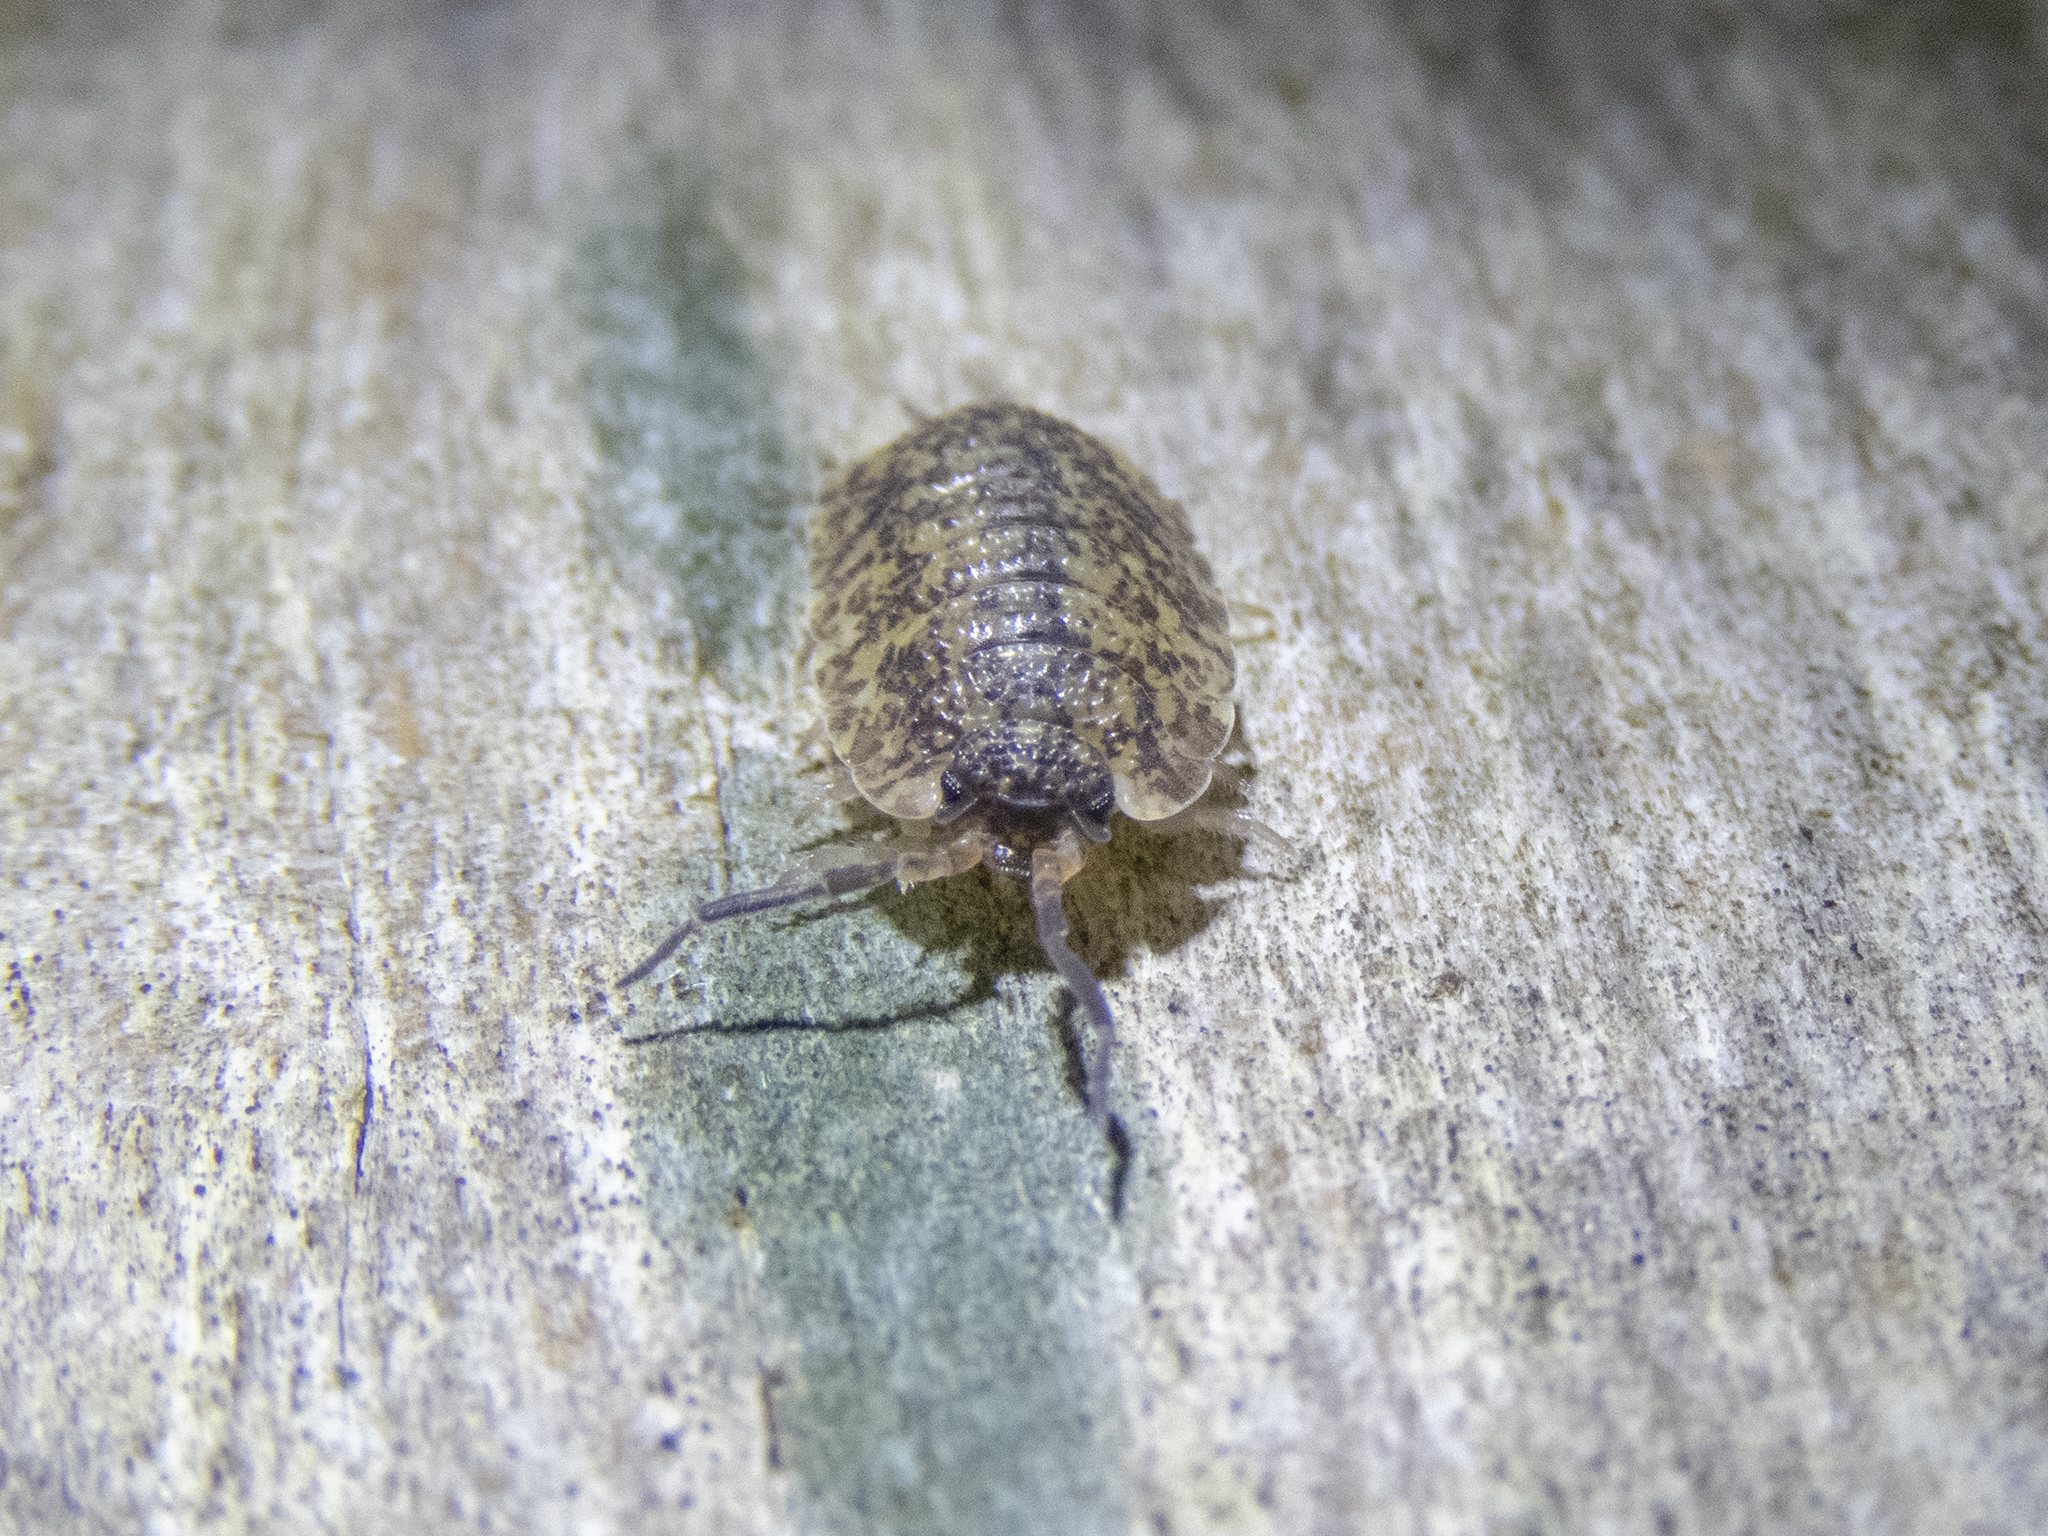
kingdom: Animalia
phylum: Arthropoda
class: Malacostraca
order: Isopoda
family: Porcellionidae
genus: Porcellio
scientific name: Porcellio scaber
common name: Common rough woodlouse
